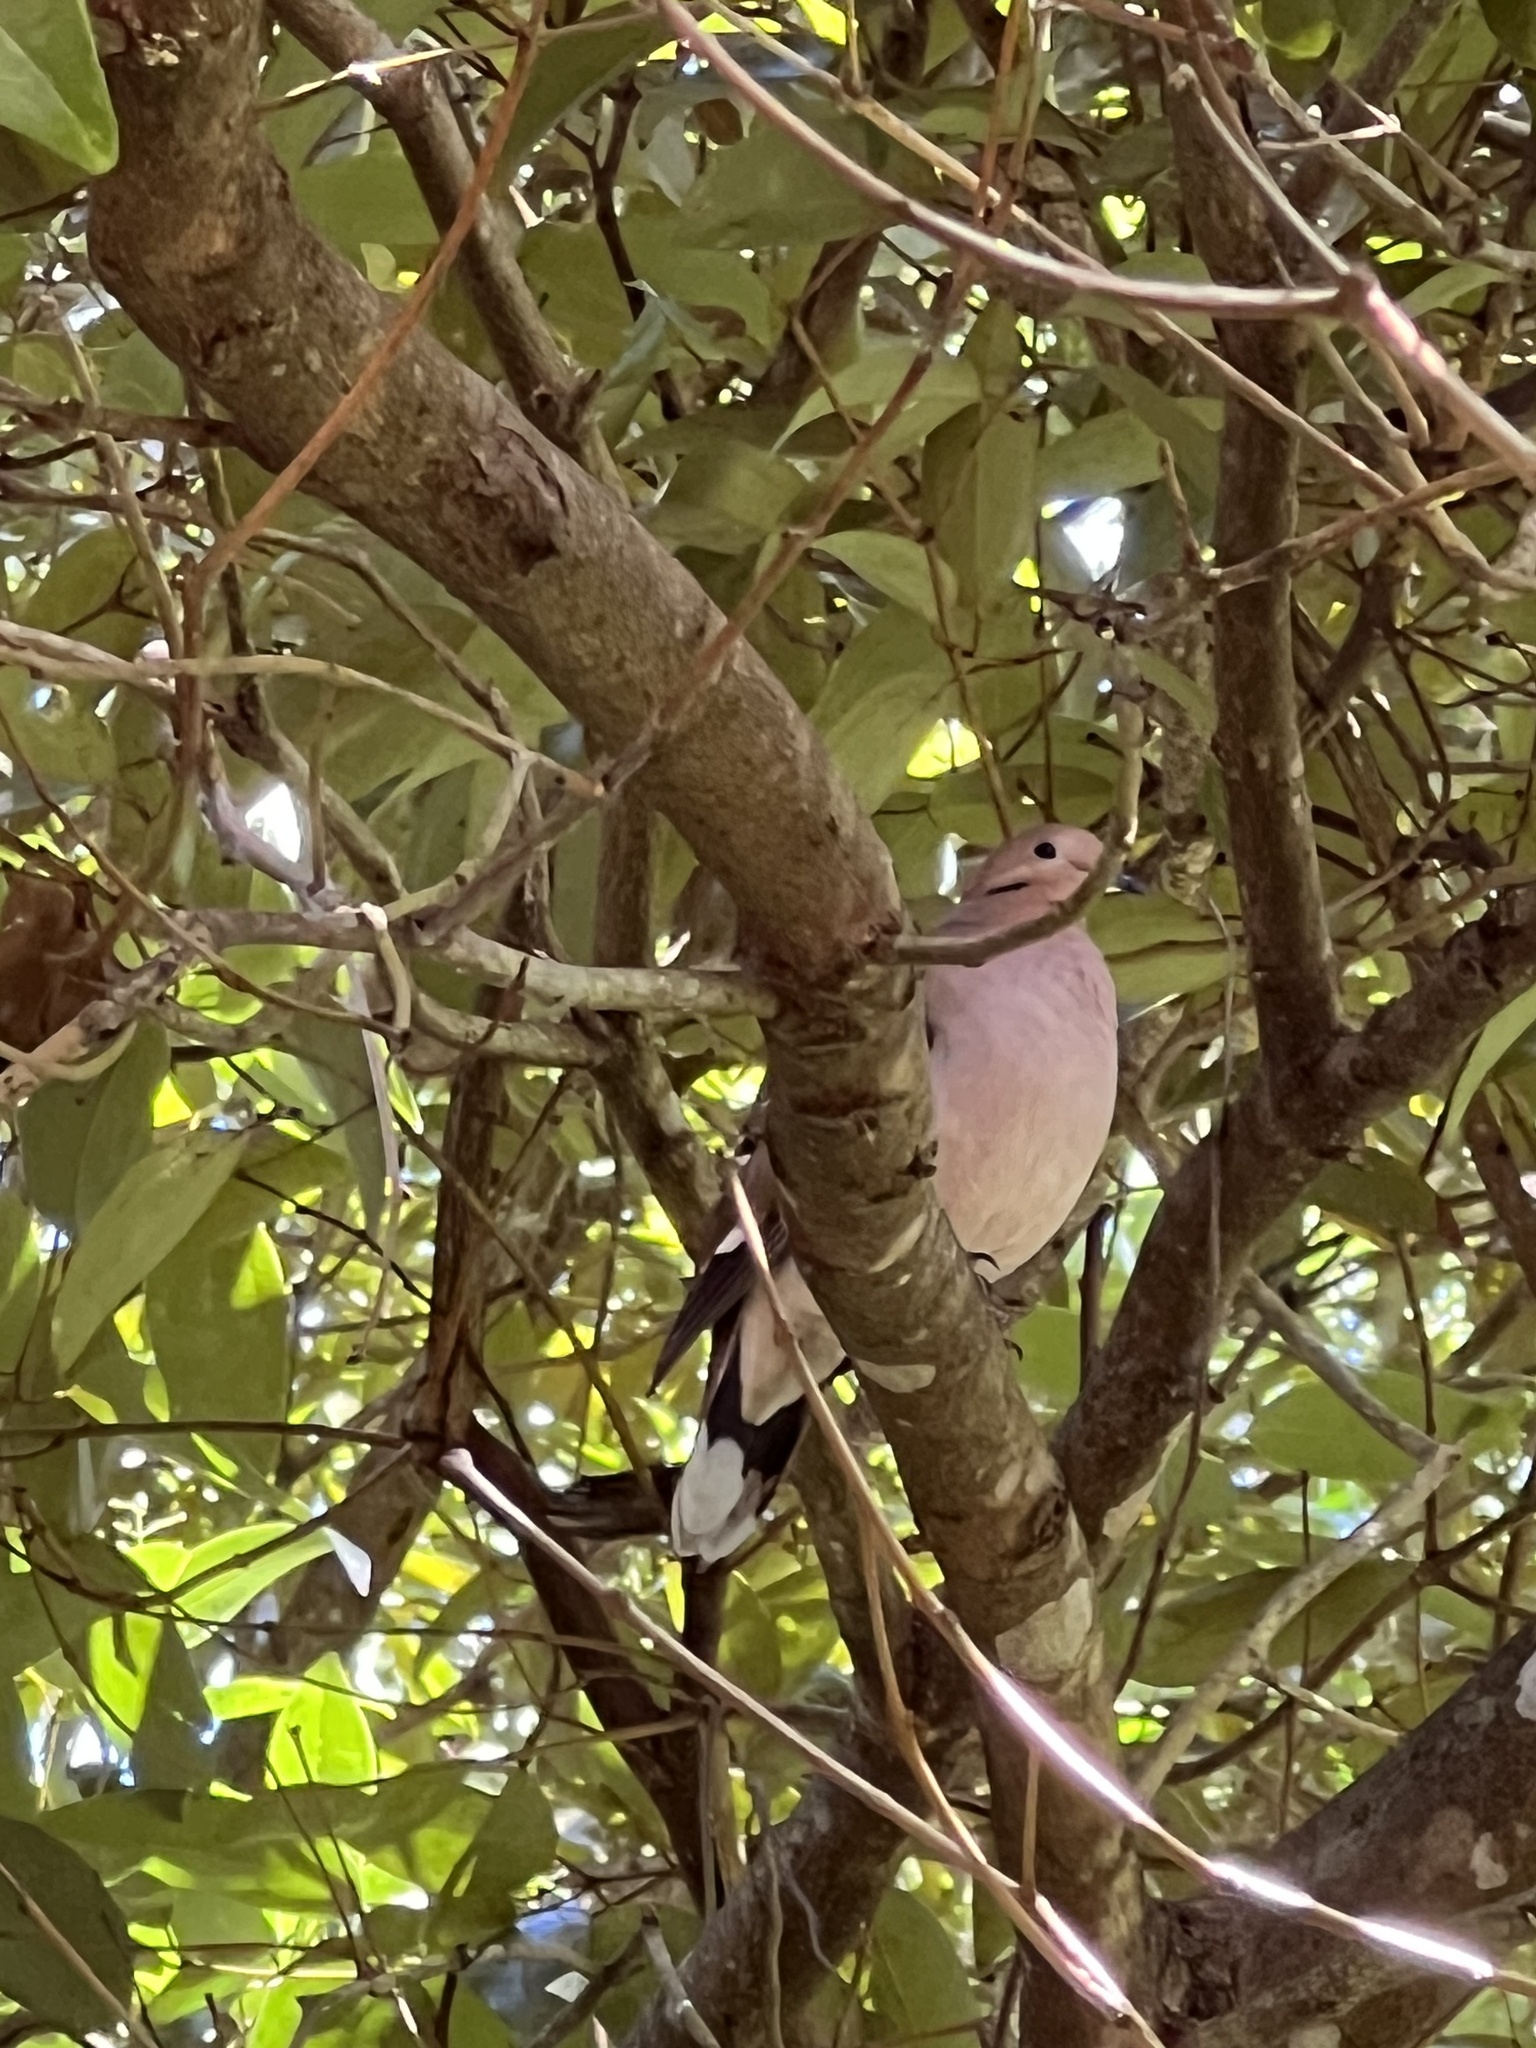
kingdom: Animalia
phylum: Chordata
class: Aves
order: Columbiformes
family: Columbidae
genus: Zenaida
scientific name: Zenaida aurita
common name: Zenaida dove
